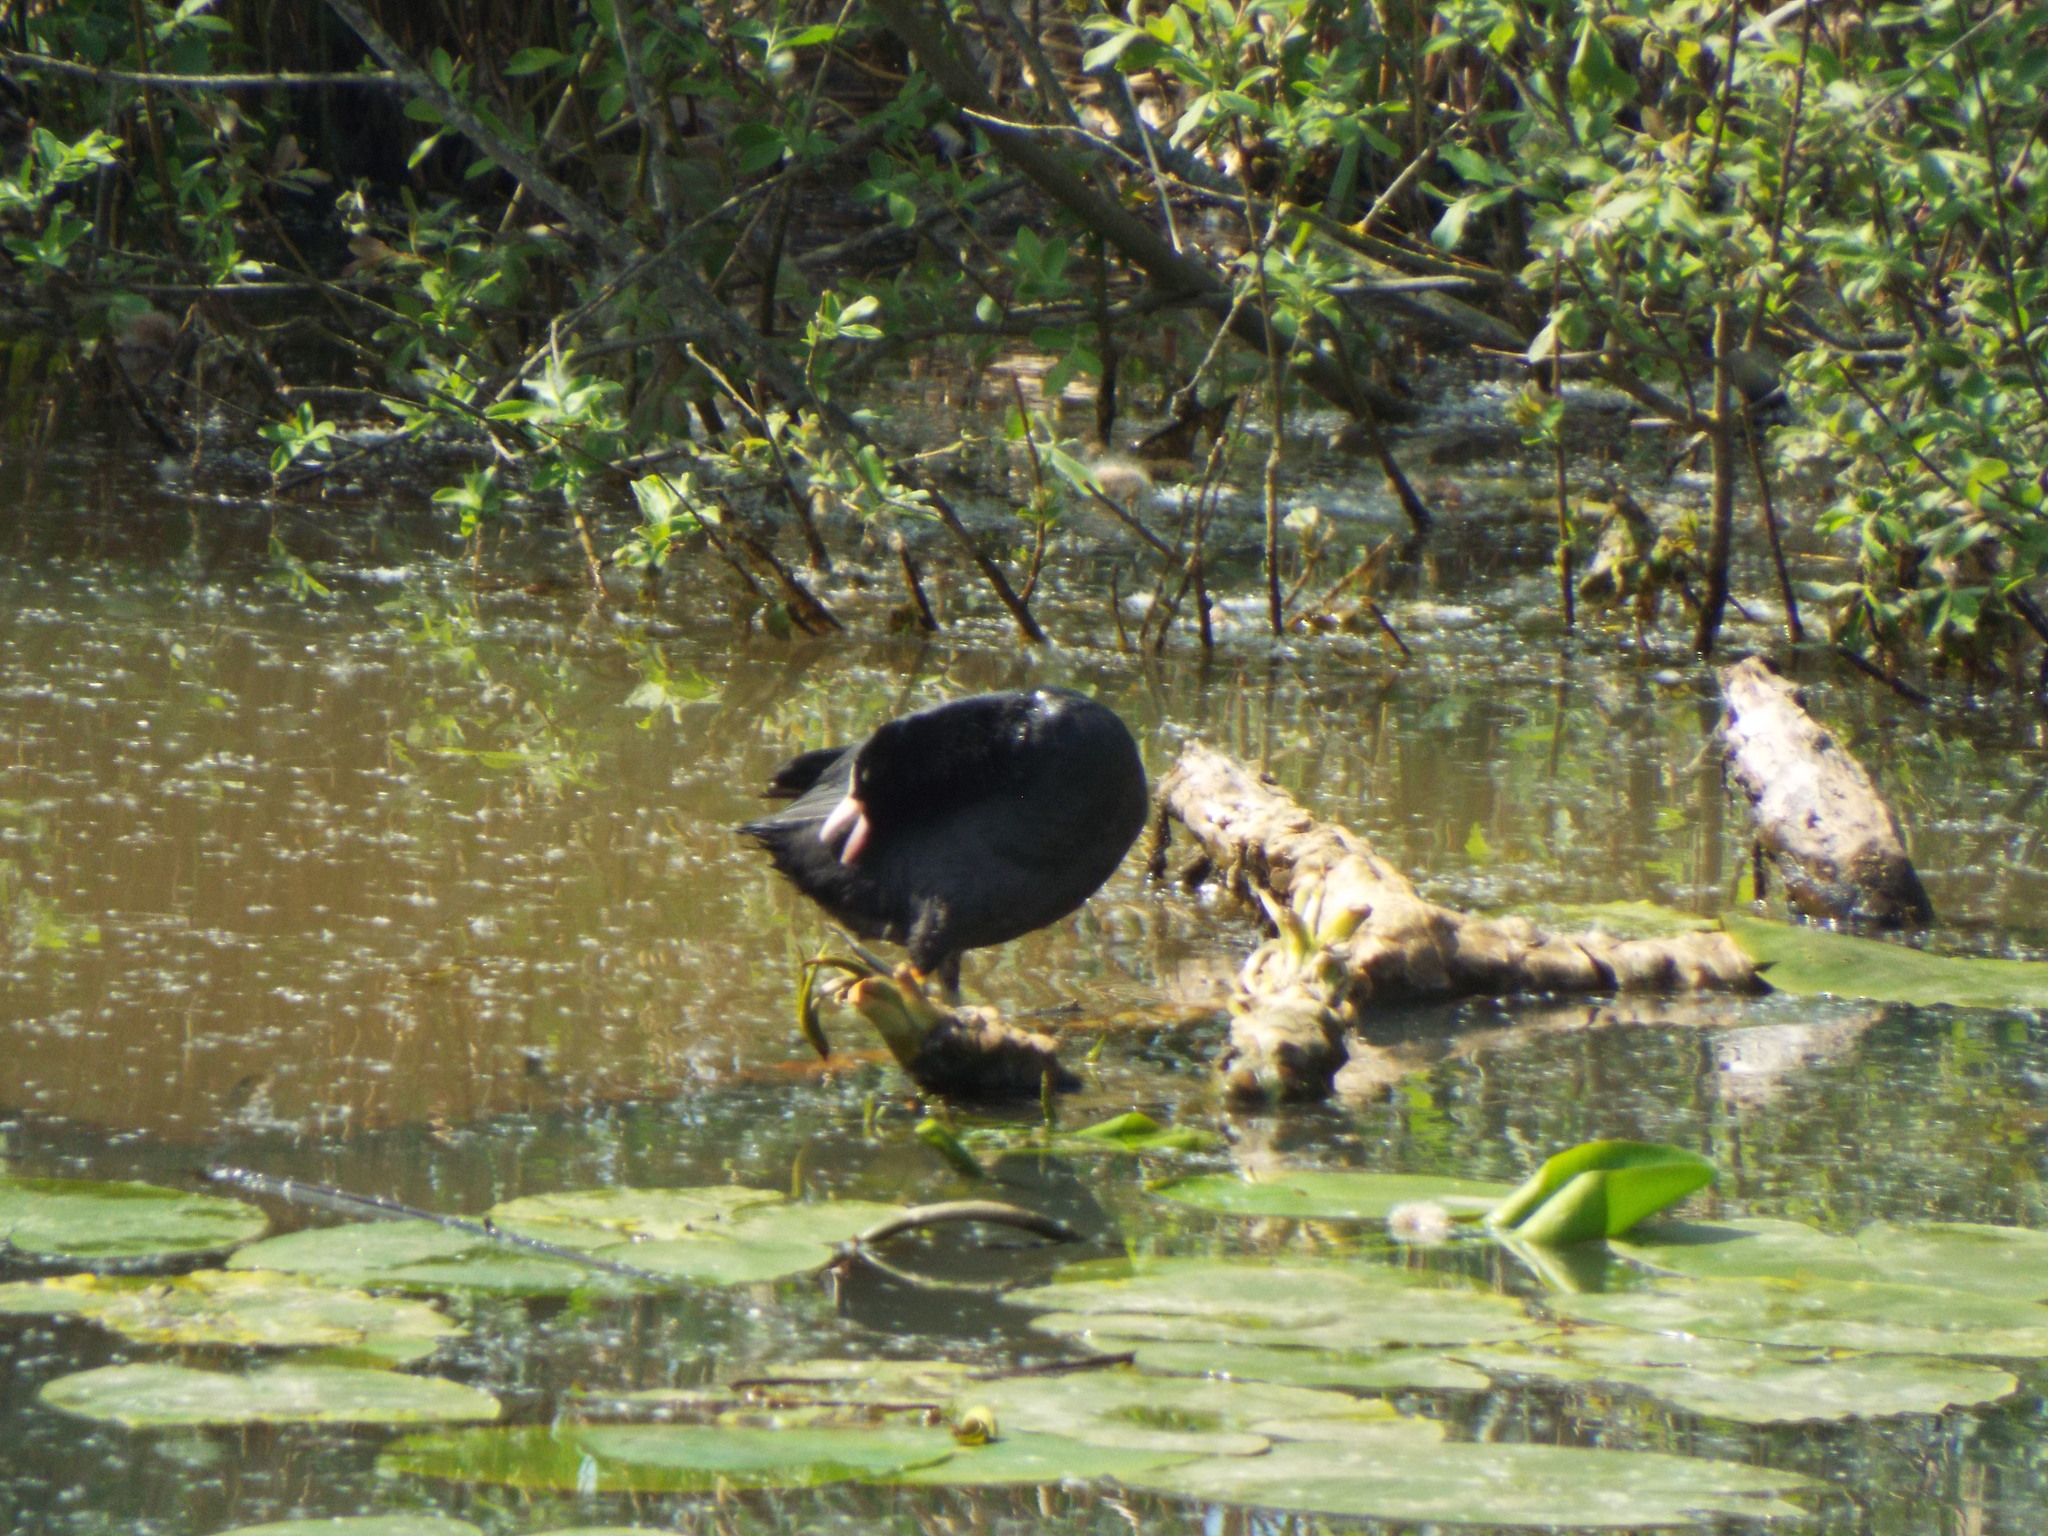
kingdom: Animalia
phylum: Chordata
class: Aves
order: Gruiformes
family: Rallidae
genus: Fulica
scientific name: Fulica atra
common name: Eurasian coot
